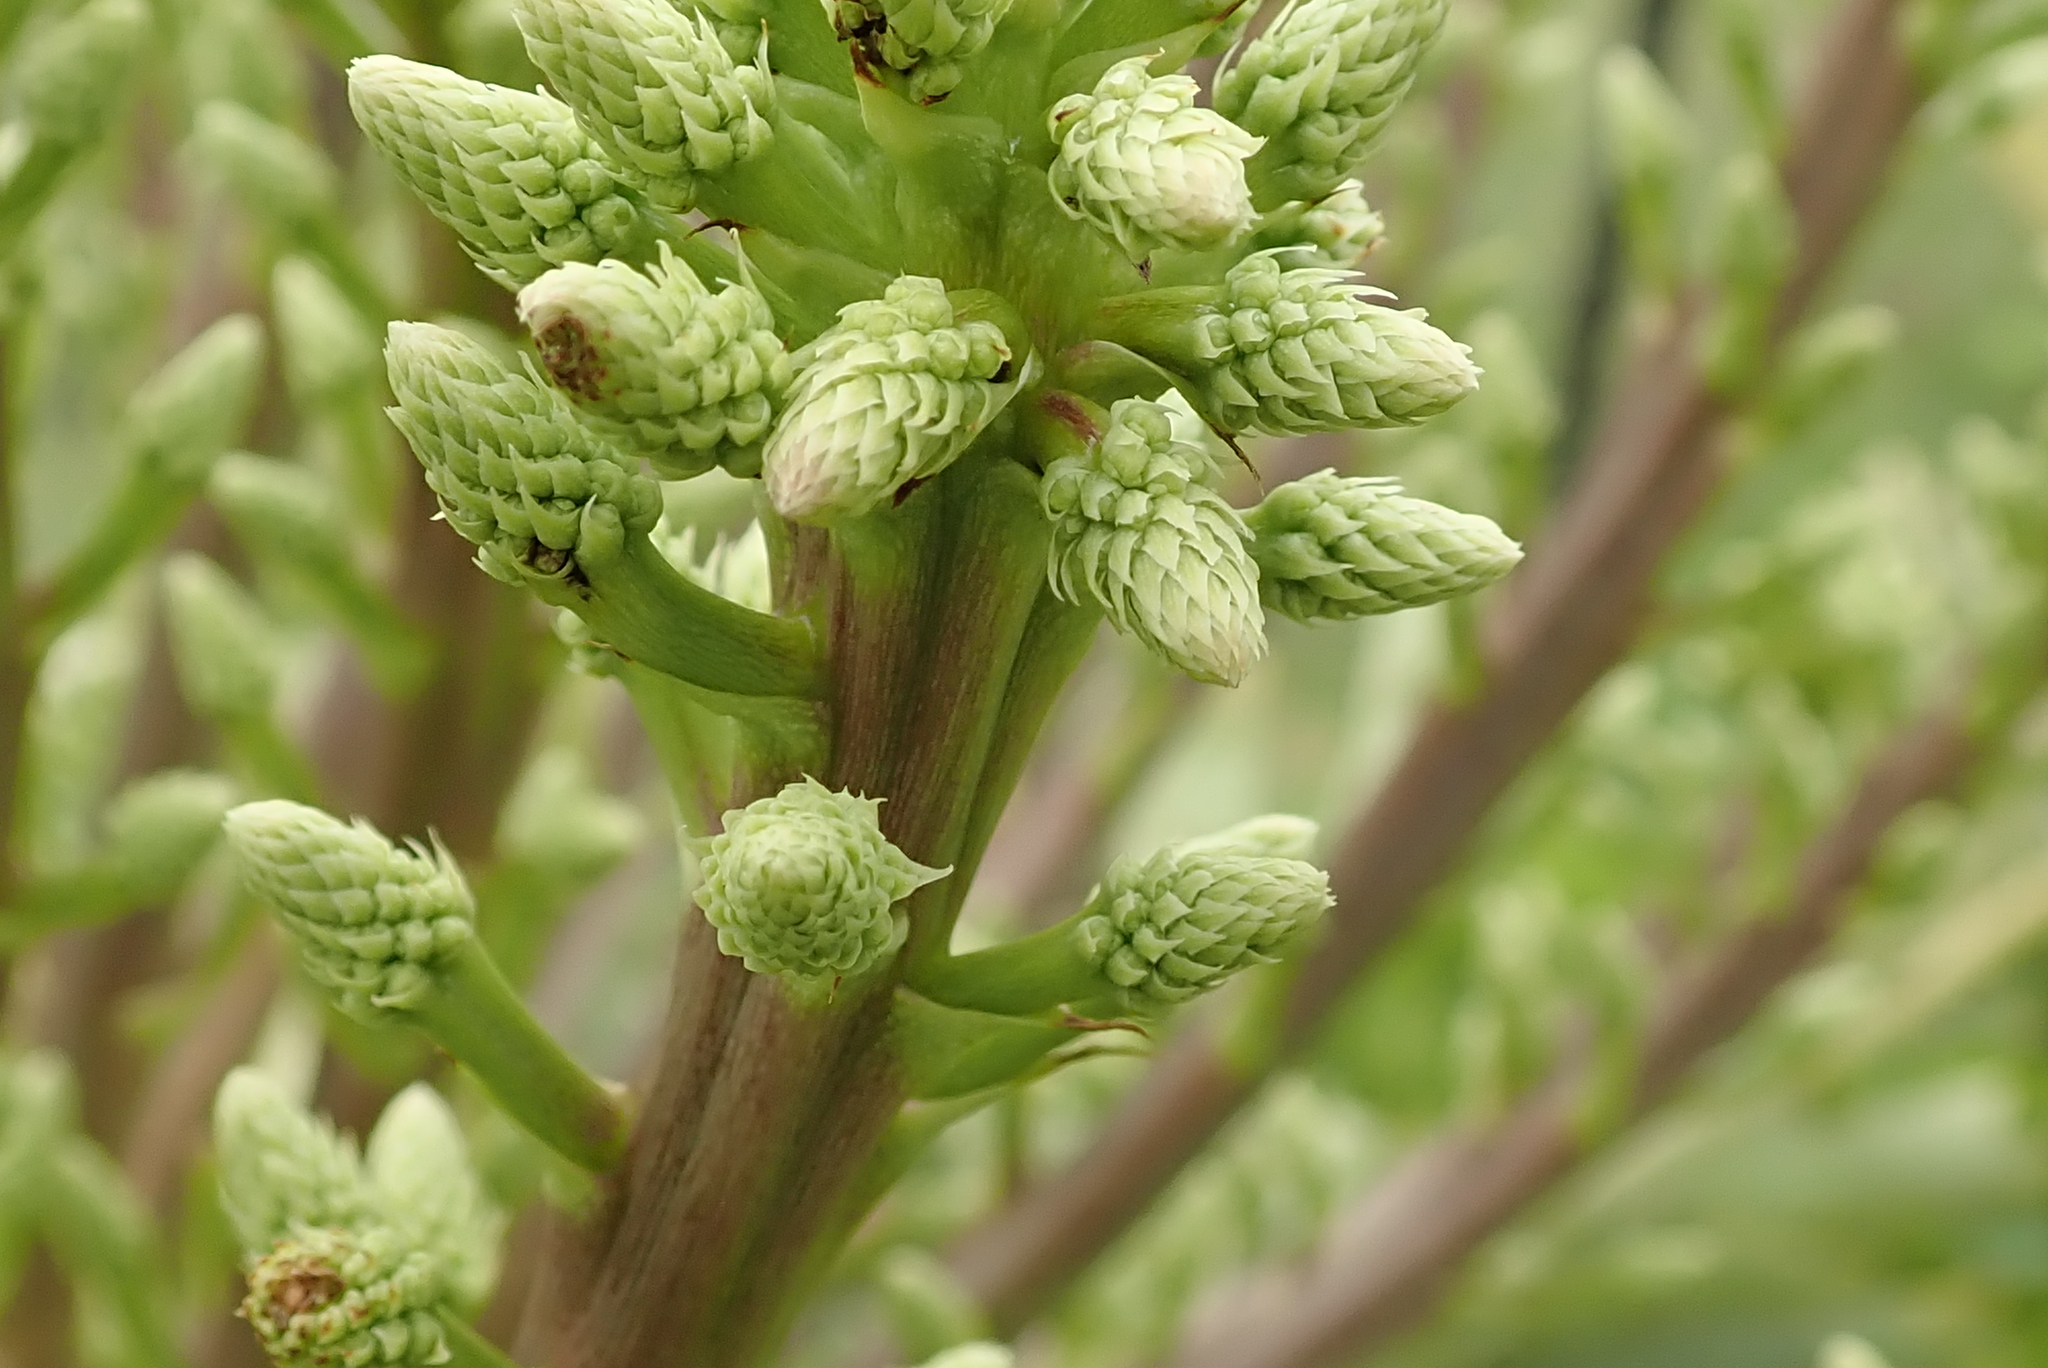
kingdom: Plantae
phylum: Tracheophyta
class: Magnoliopsida
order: Apiales
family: Araliaceae
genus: Cussonia
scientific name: Cussonia paniculata
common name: Cabbagetree
